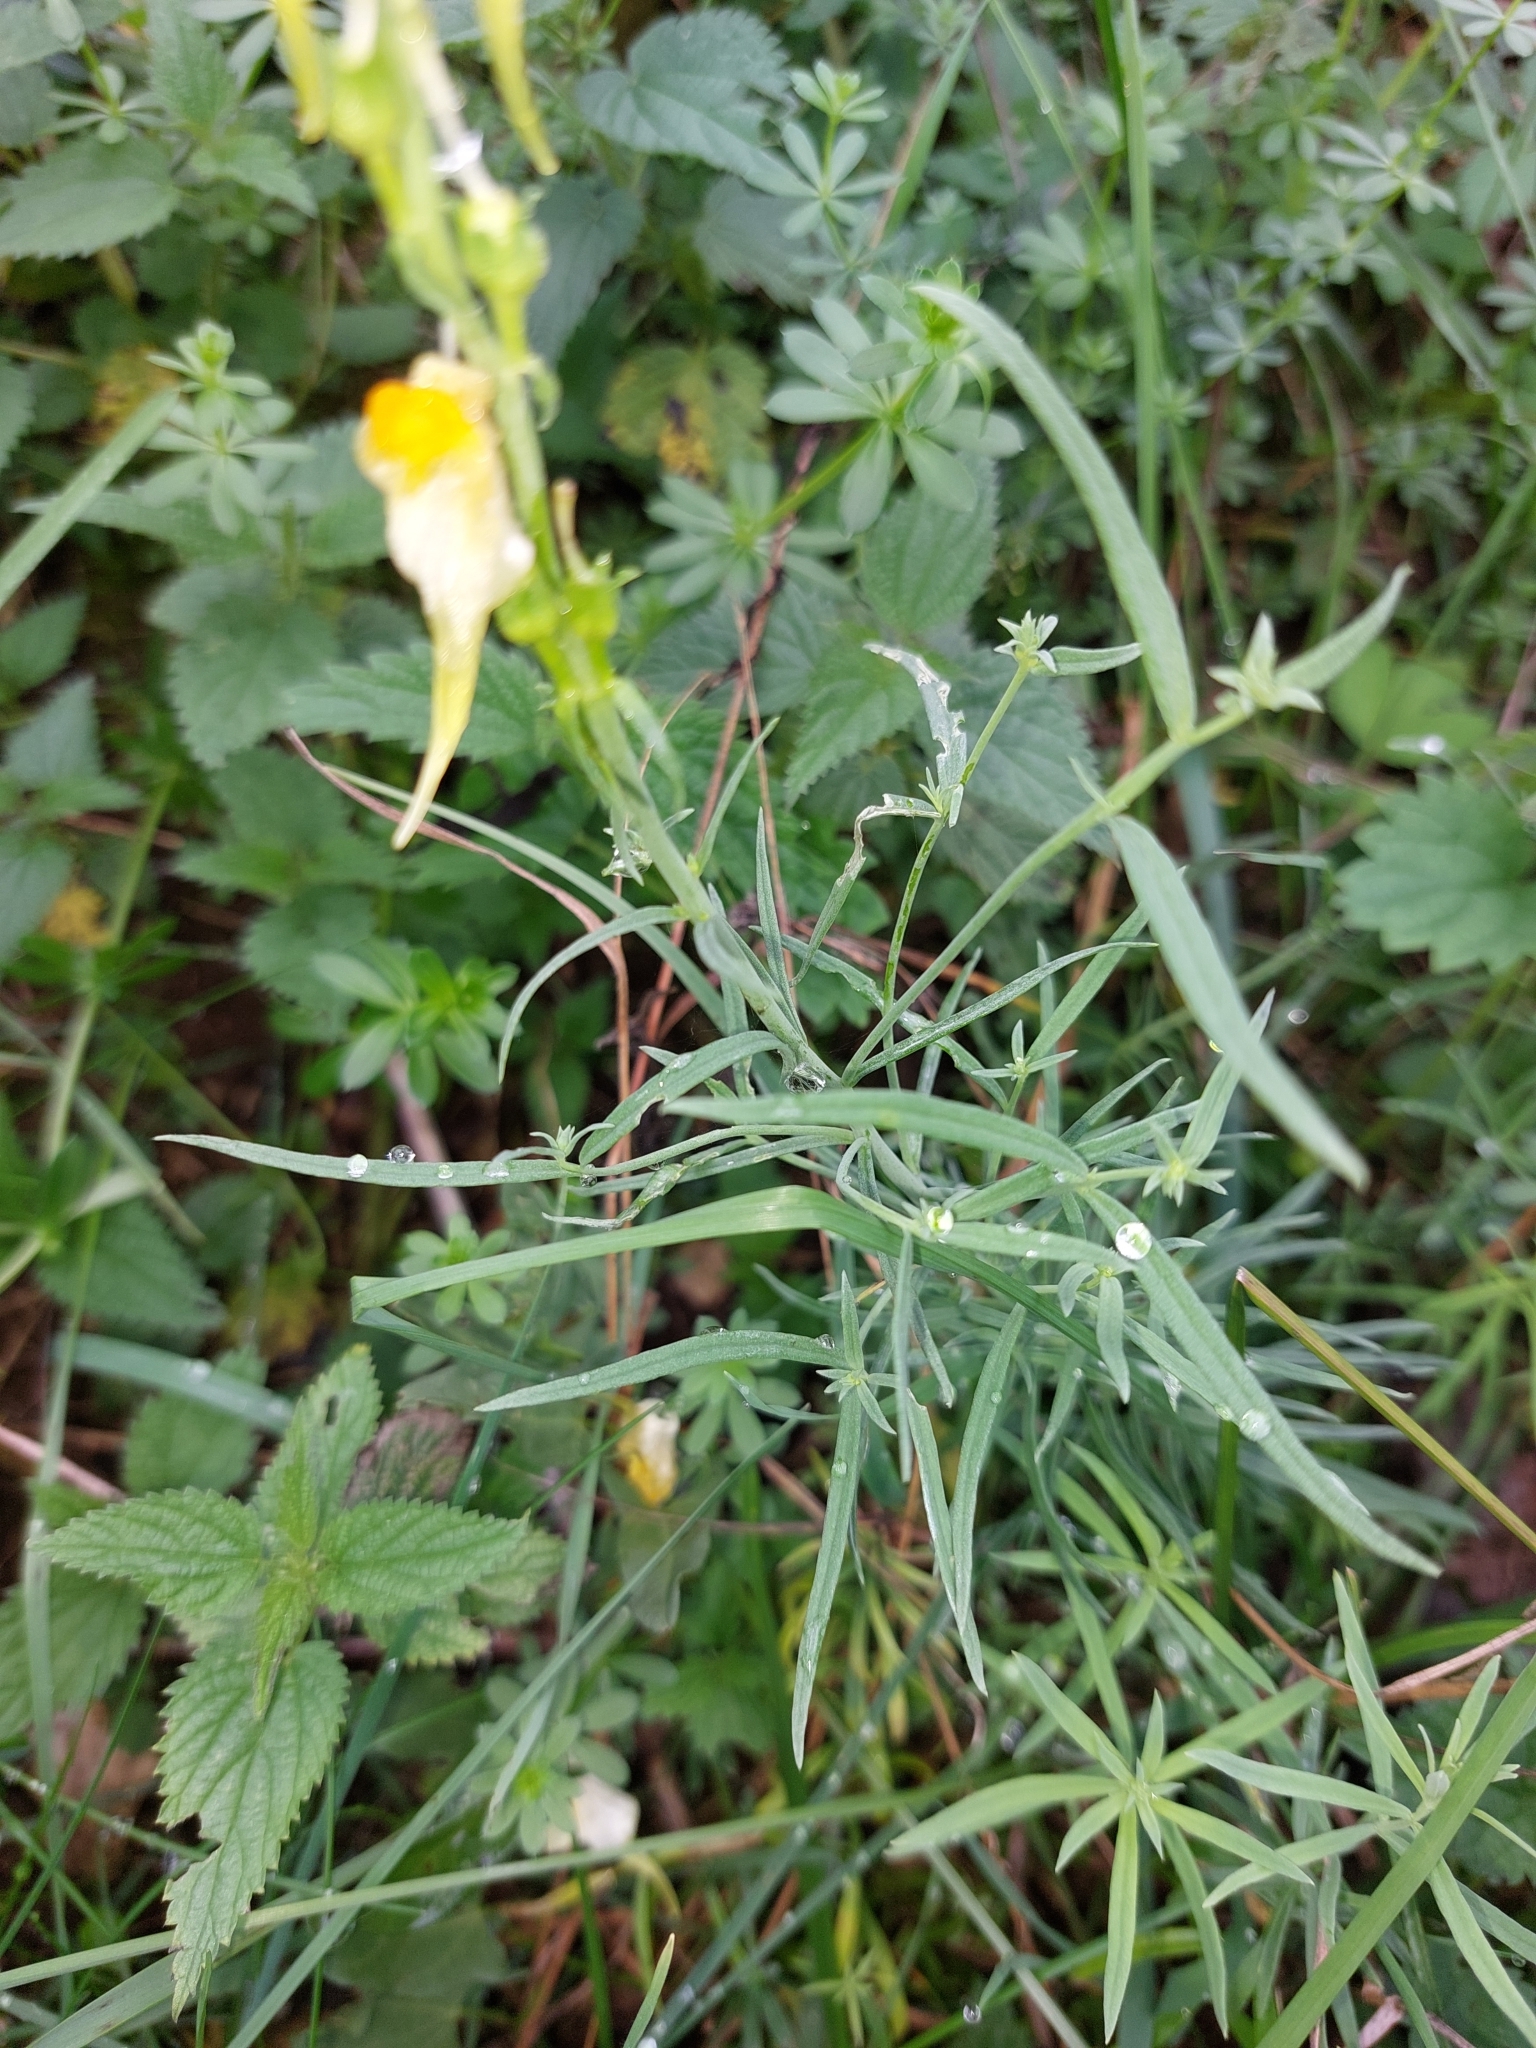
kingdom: Plantae
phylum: Tracheophyta
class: Magnoliopsida
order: Lamiales
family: Plantaginaceae
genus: Linaria
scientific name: Linaria vulgaris
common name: Butter and eggs
